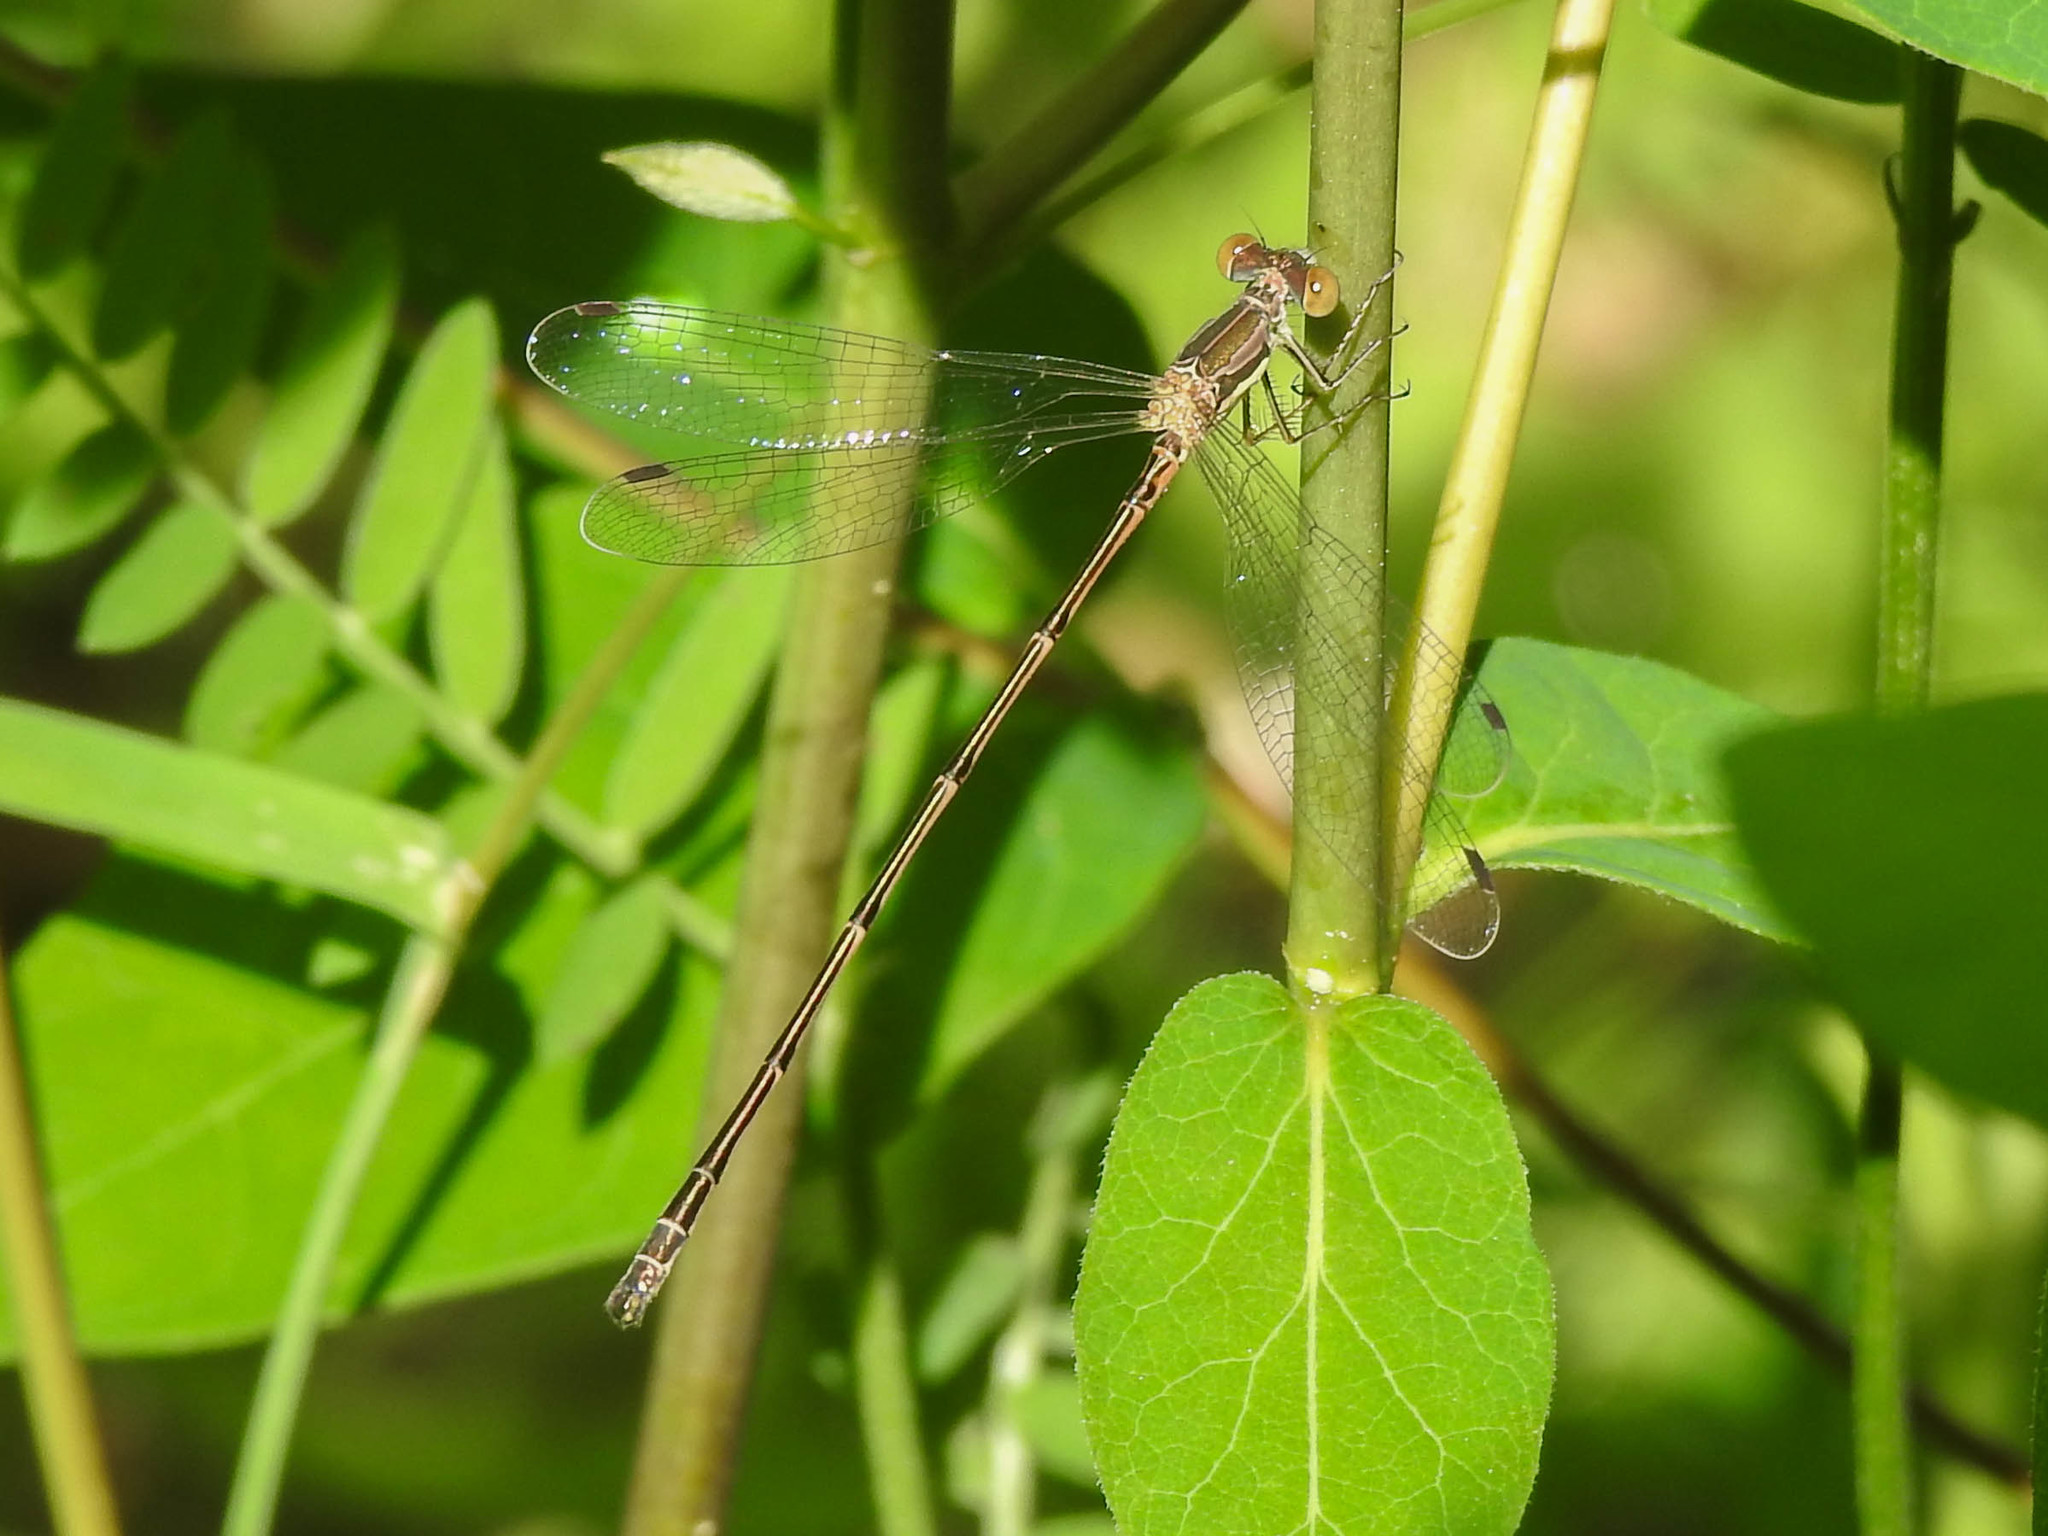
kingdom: Animalia
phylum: Arthropoda
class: Insecta
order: Odonata
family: Lestidae
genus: Lestes
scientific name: Lestes rectangularis
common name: Slender spreadwing
